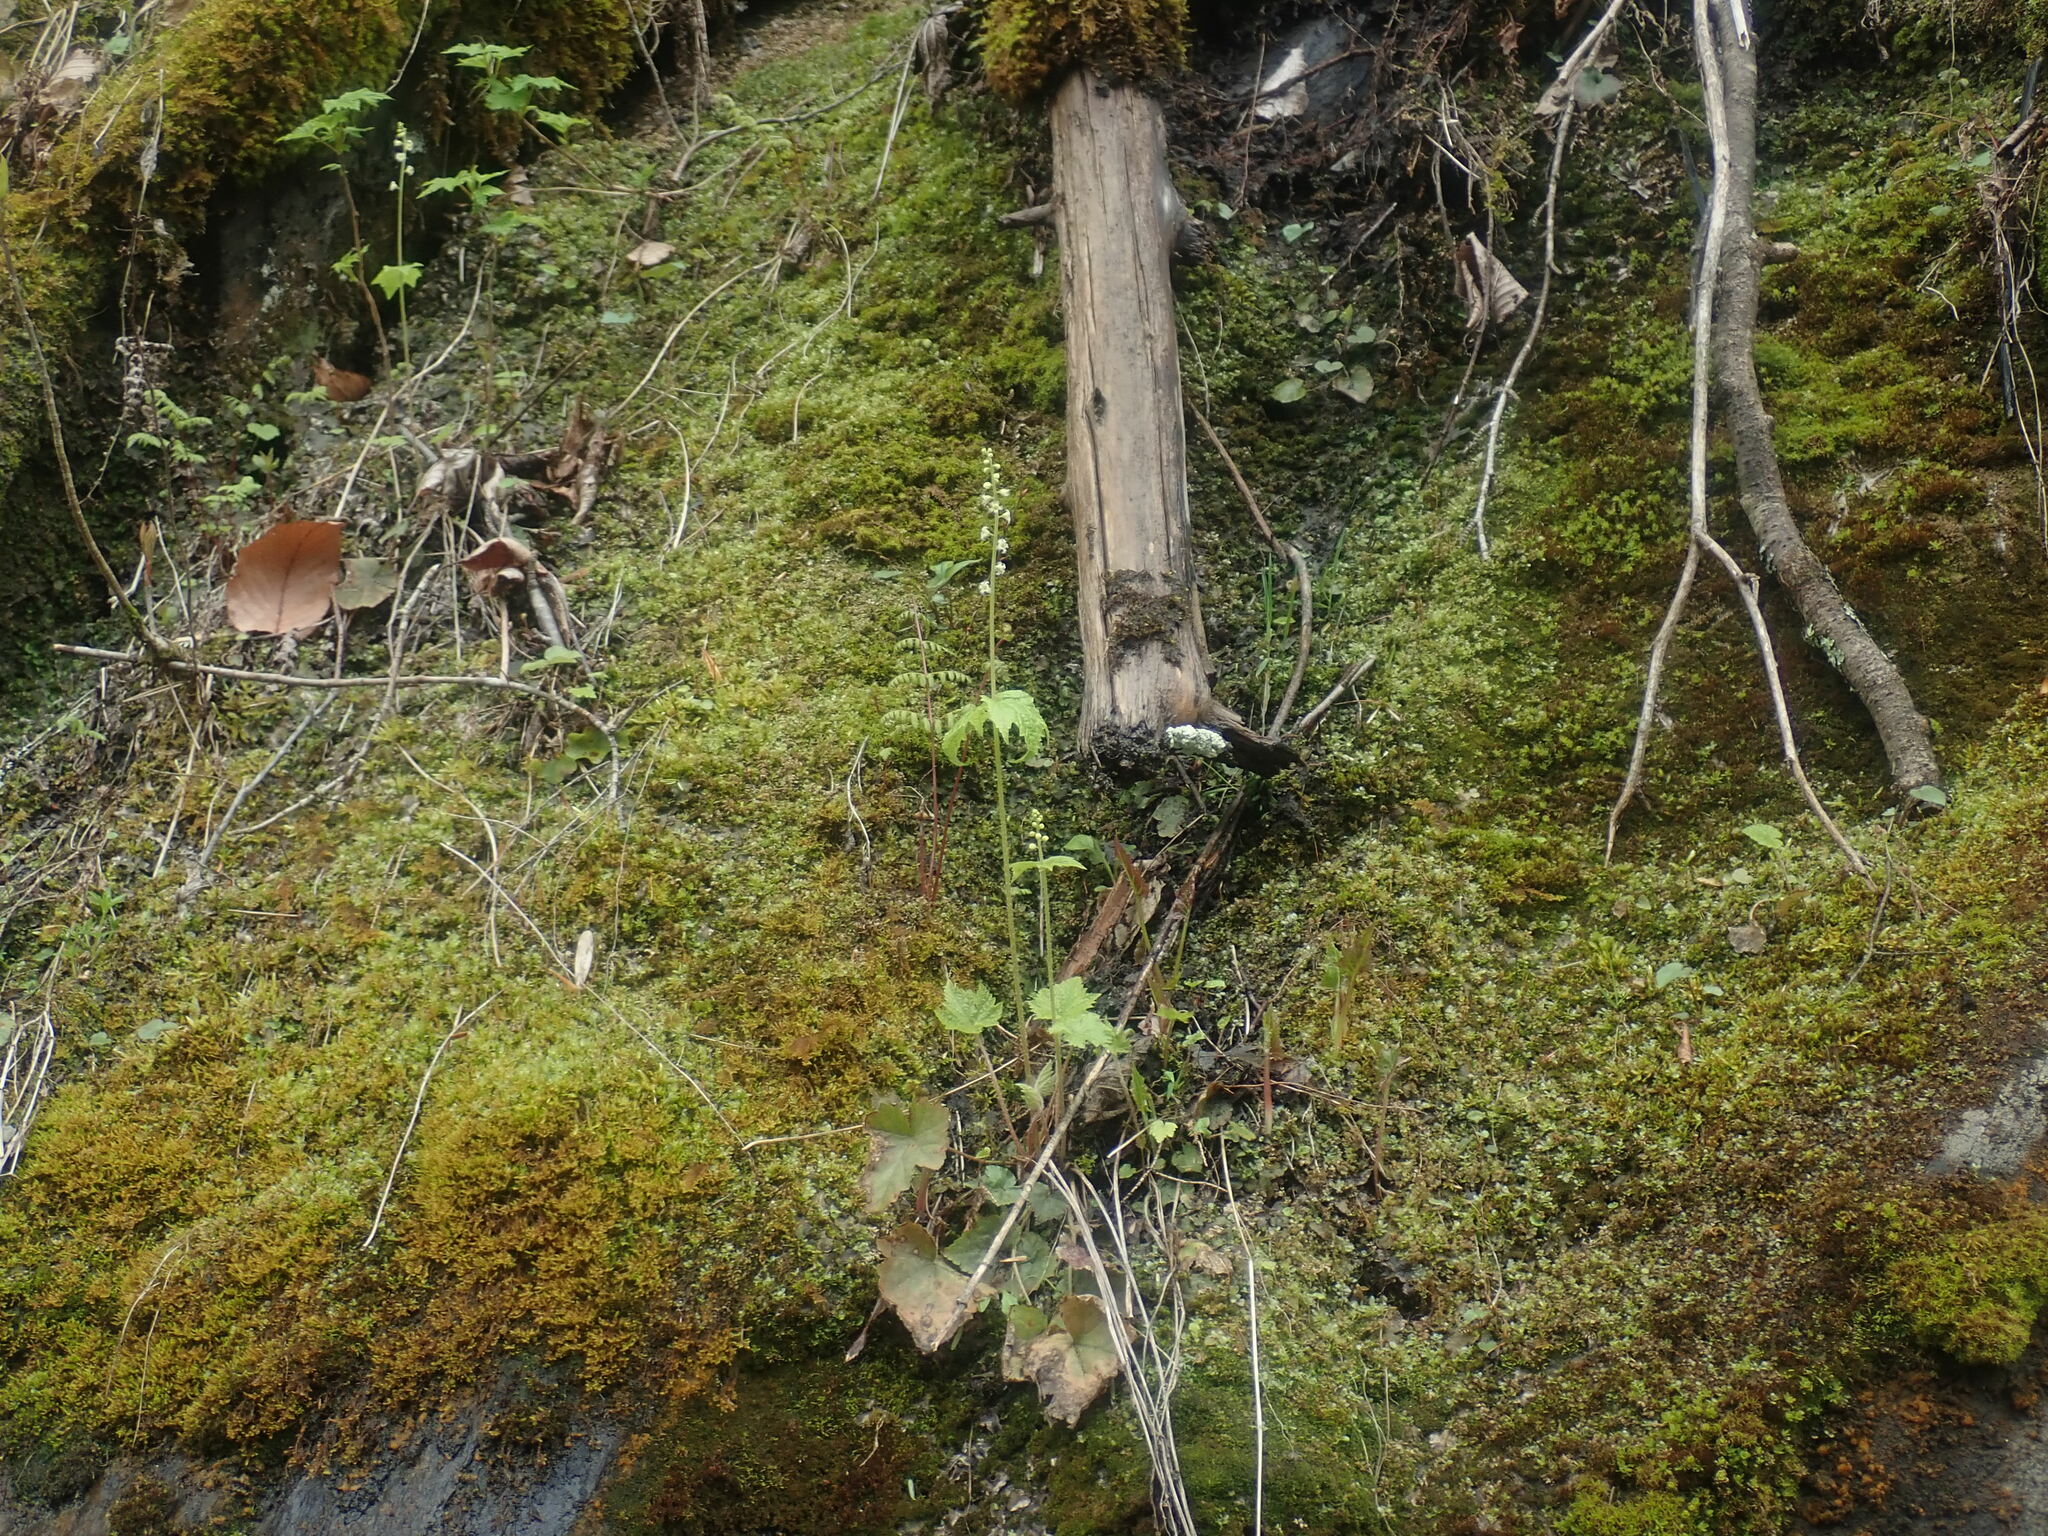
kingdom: Plantae
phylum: Tracheophyta
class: Magnoliopsida
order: Saxifragales
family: Saxifragaceae
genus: Mitella
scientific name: Mitella diphylla
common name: Coolwort
